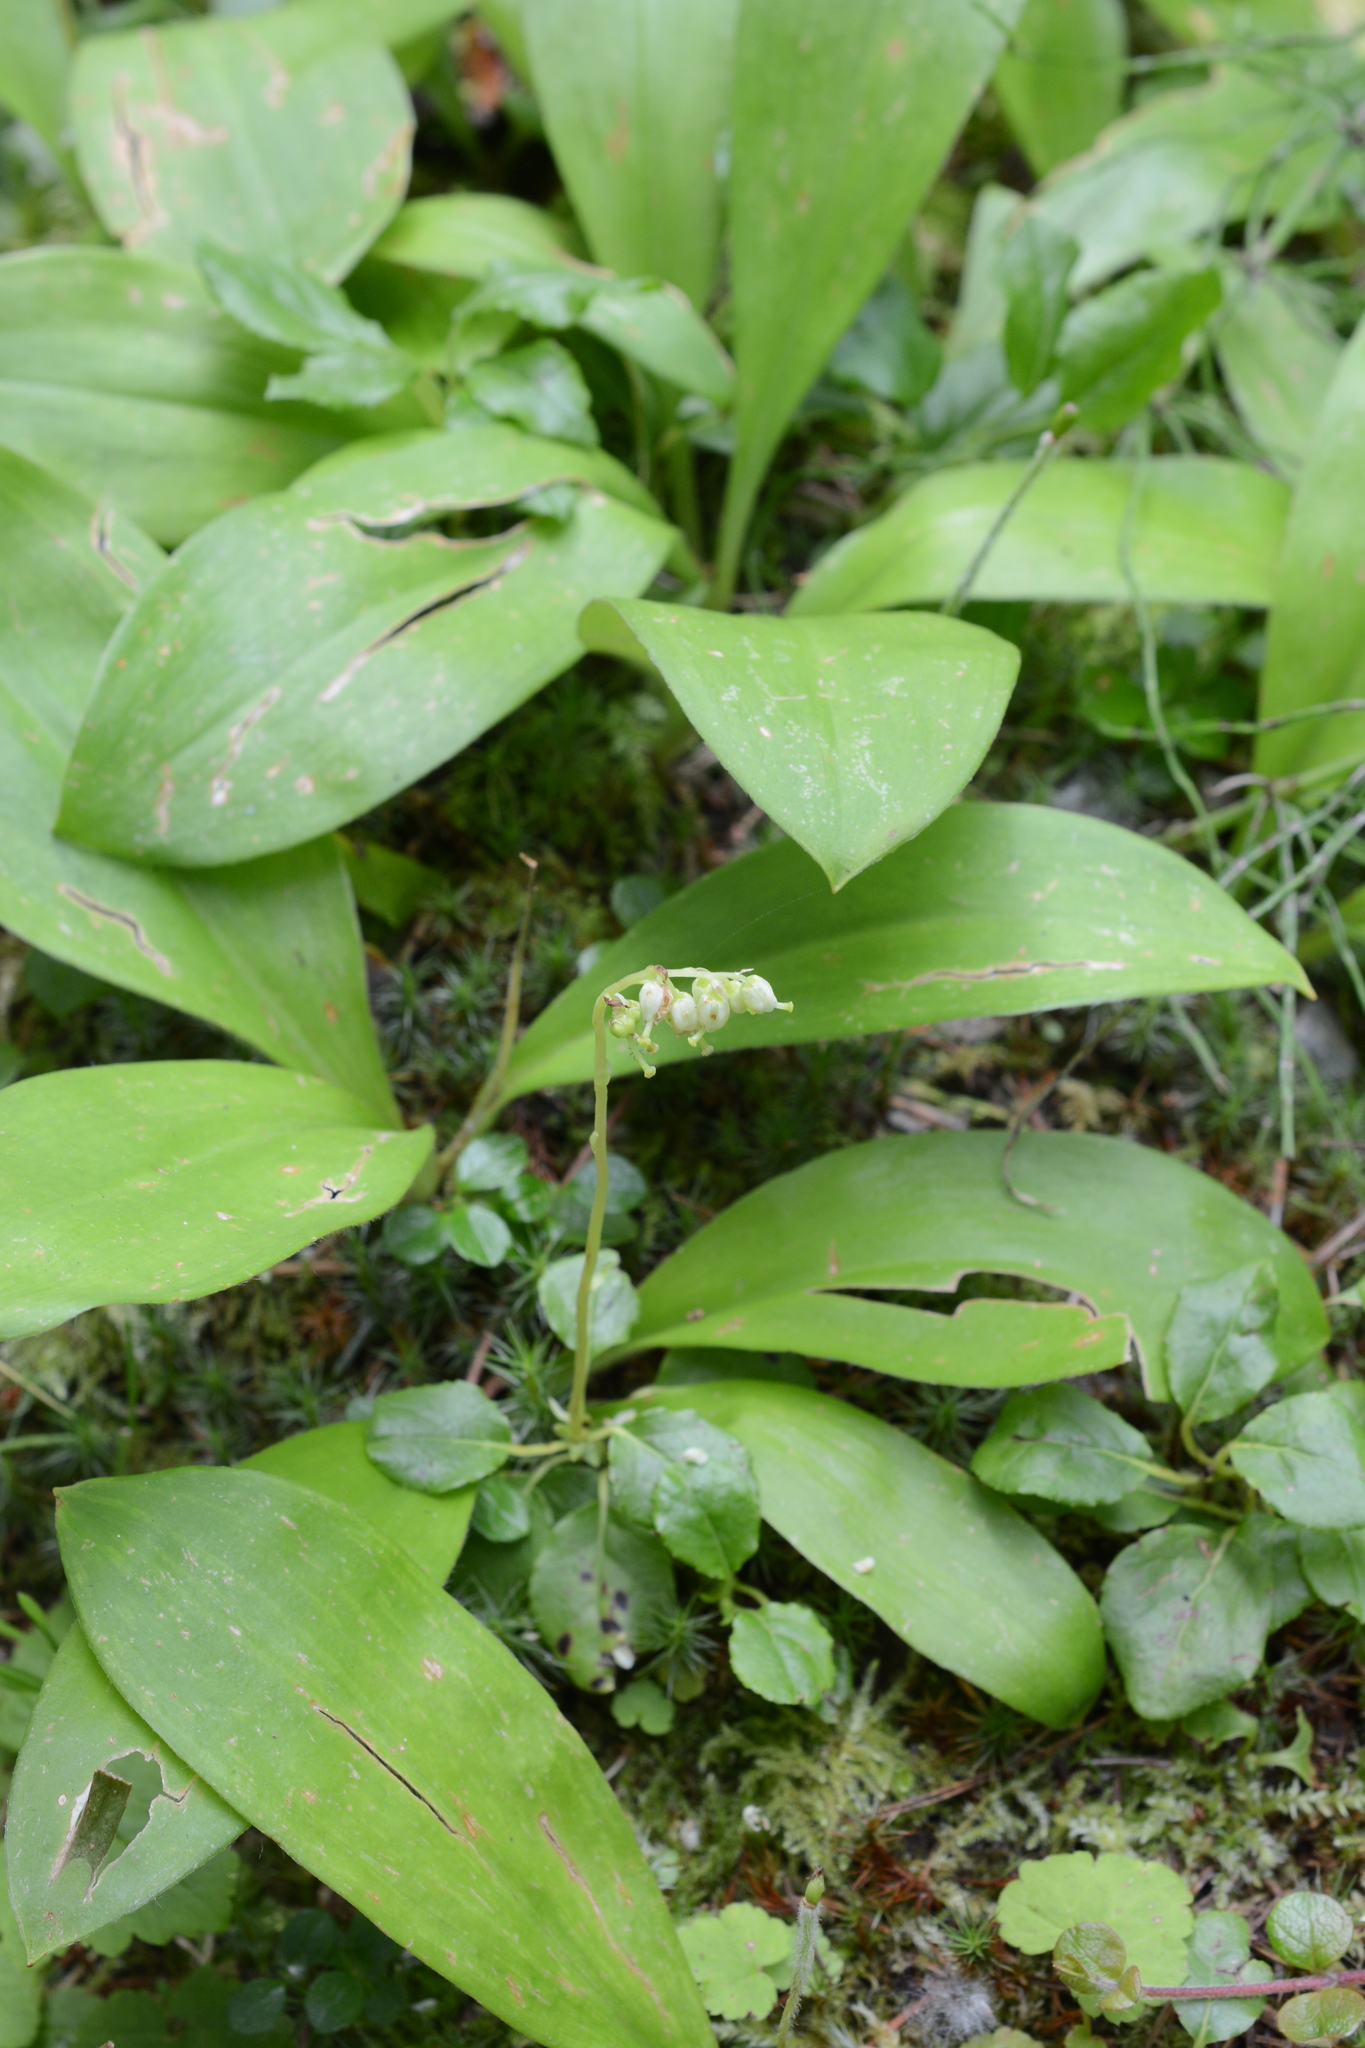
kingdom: Plantae
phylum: Tracheophyta
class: Magnoliopsida
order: Ericales
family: Ericaceae
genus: Orthilia
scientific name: Orthilia secunda
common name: One-sided orthilia
